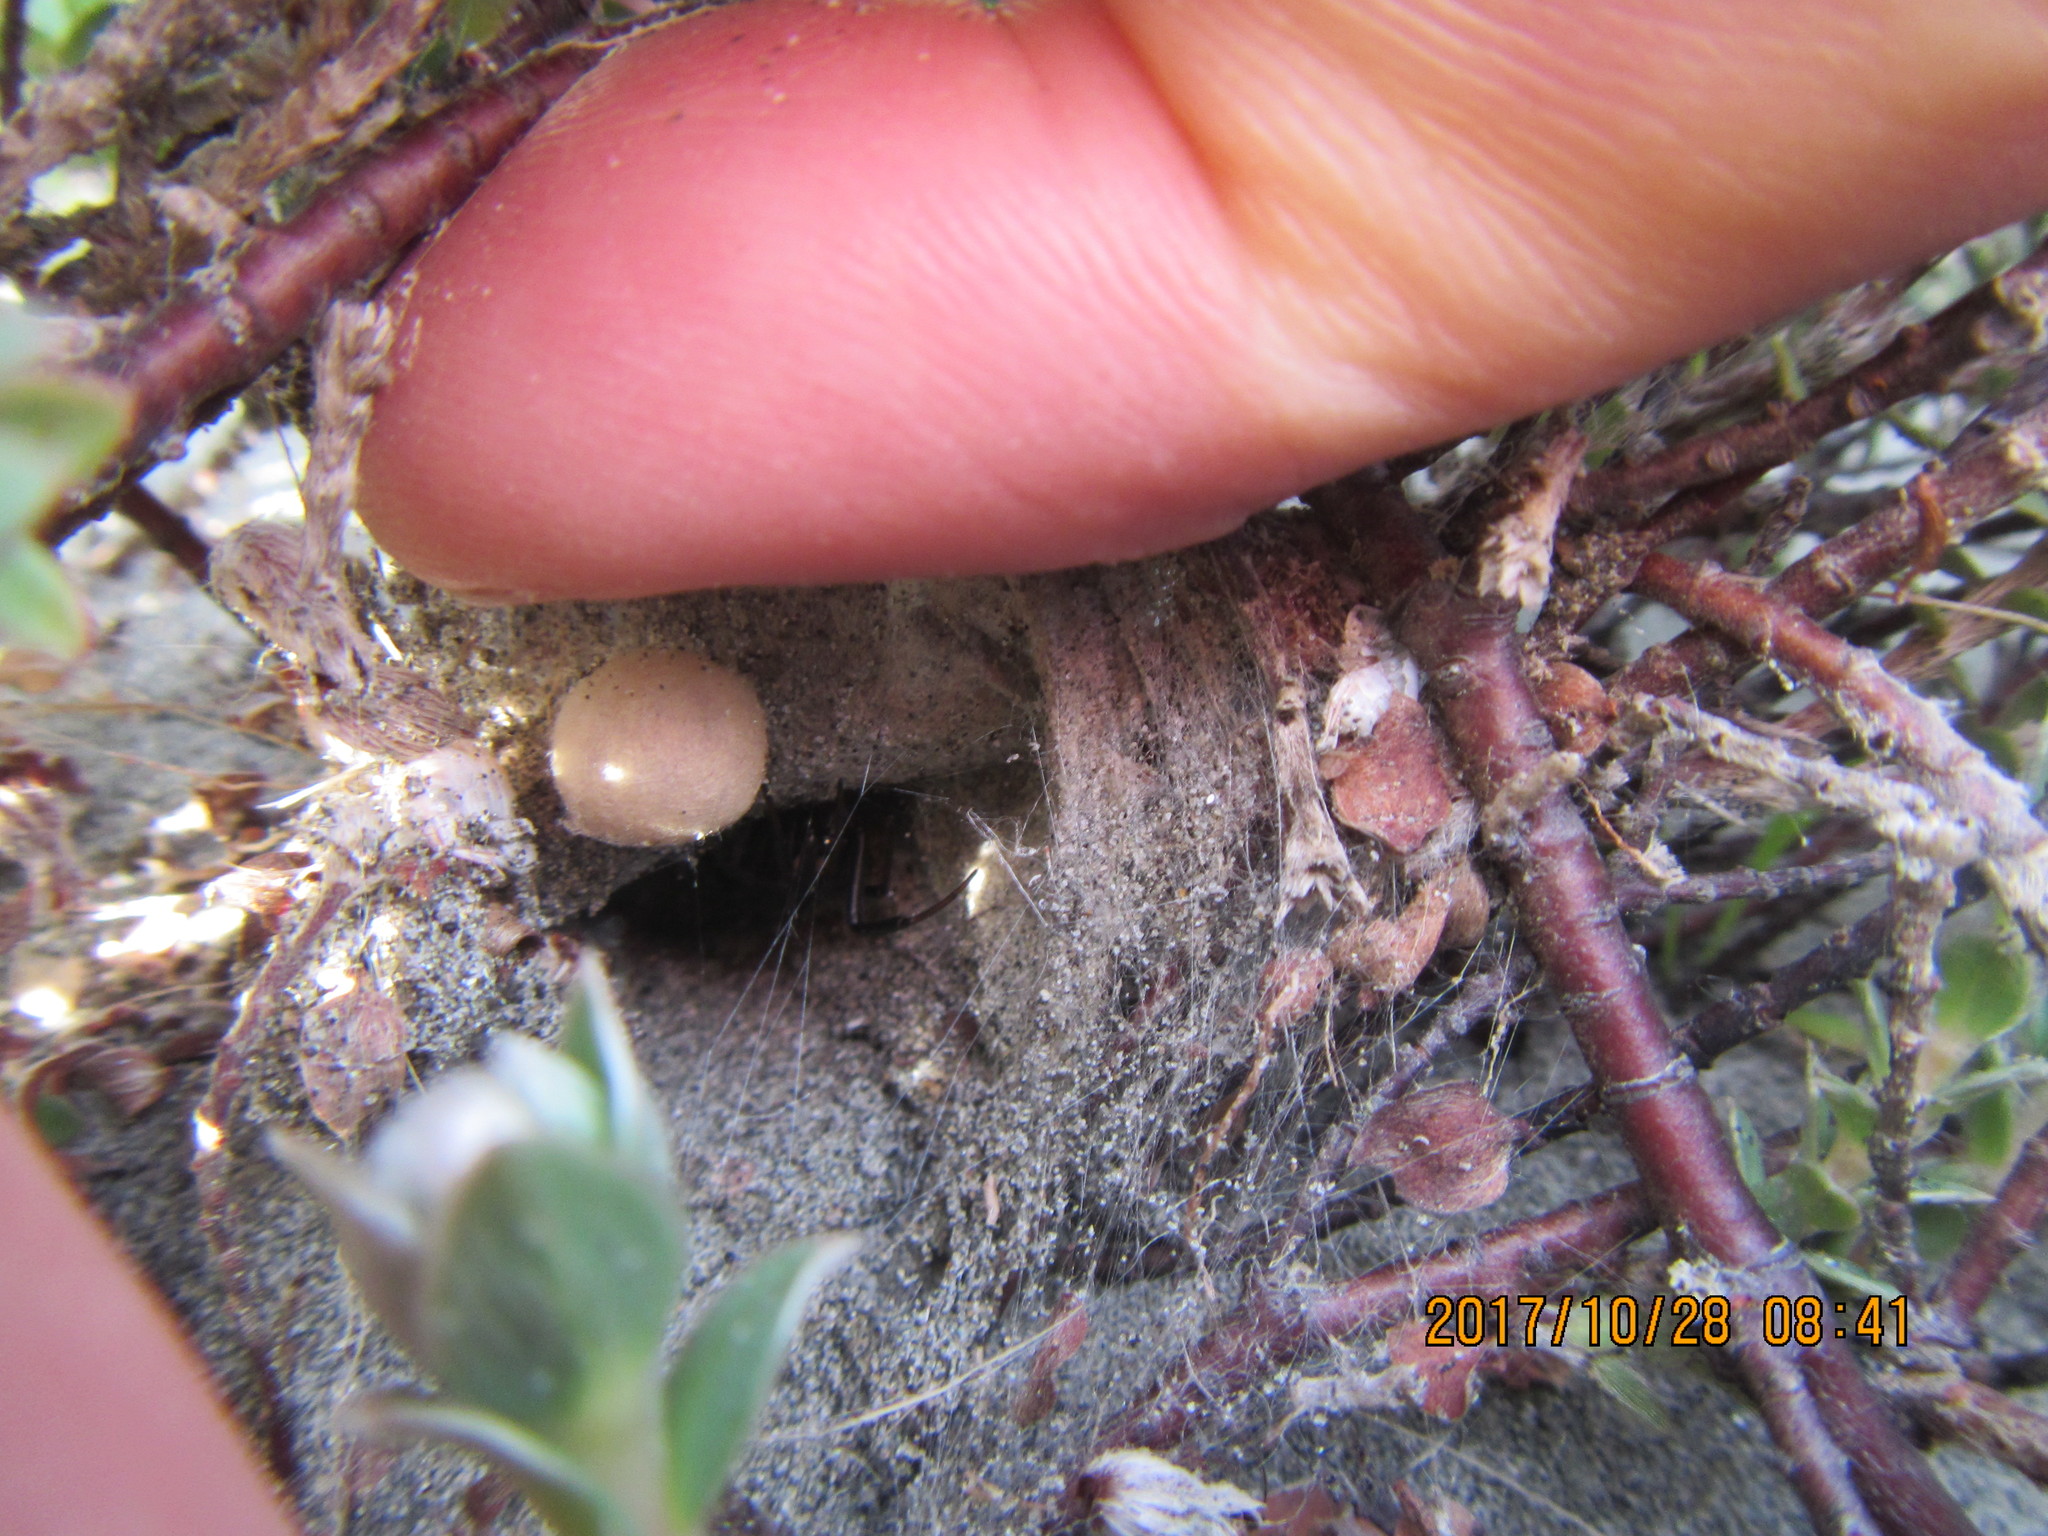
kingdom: Animalia
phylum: Arthropoda
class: Arachnida
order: Araneae
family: Theridiidae
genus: Latrodectus
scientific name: Latrodectus katipo
